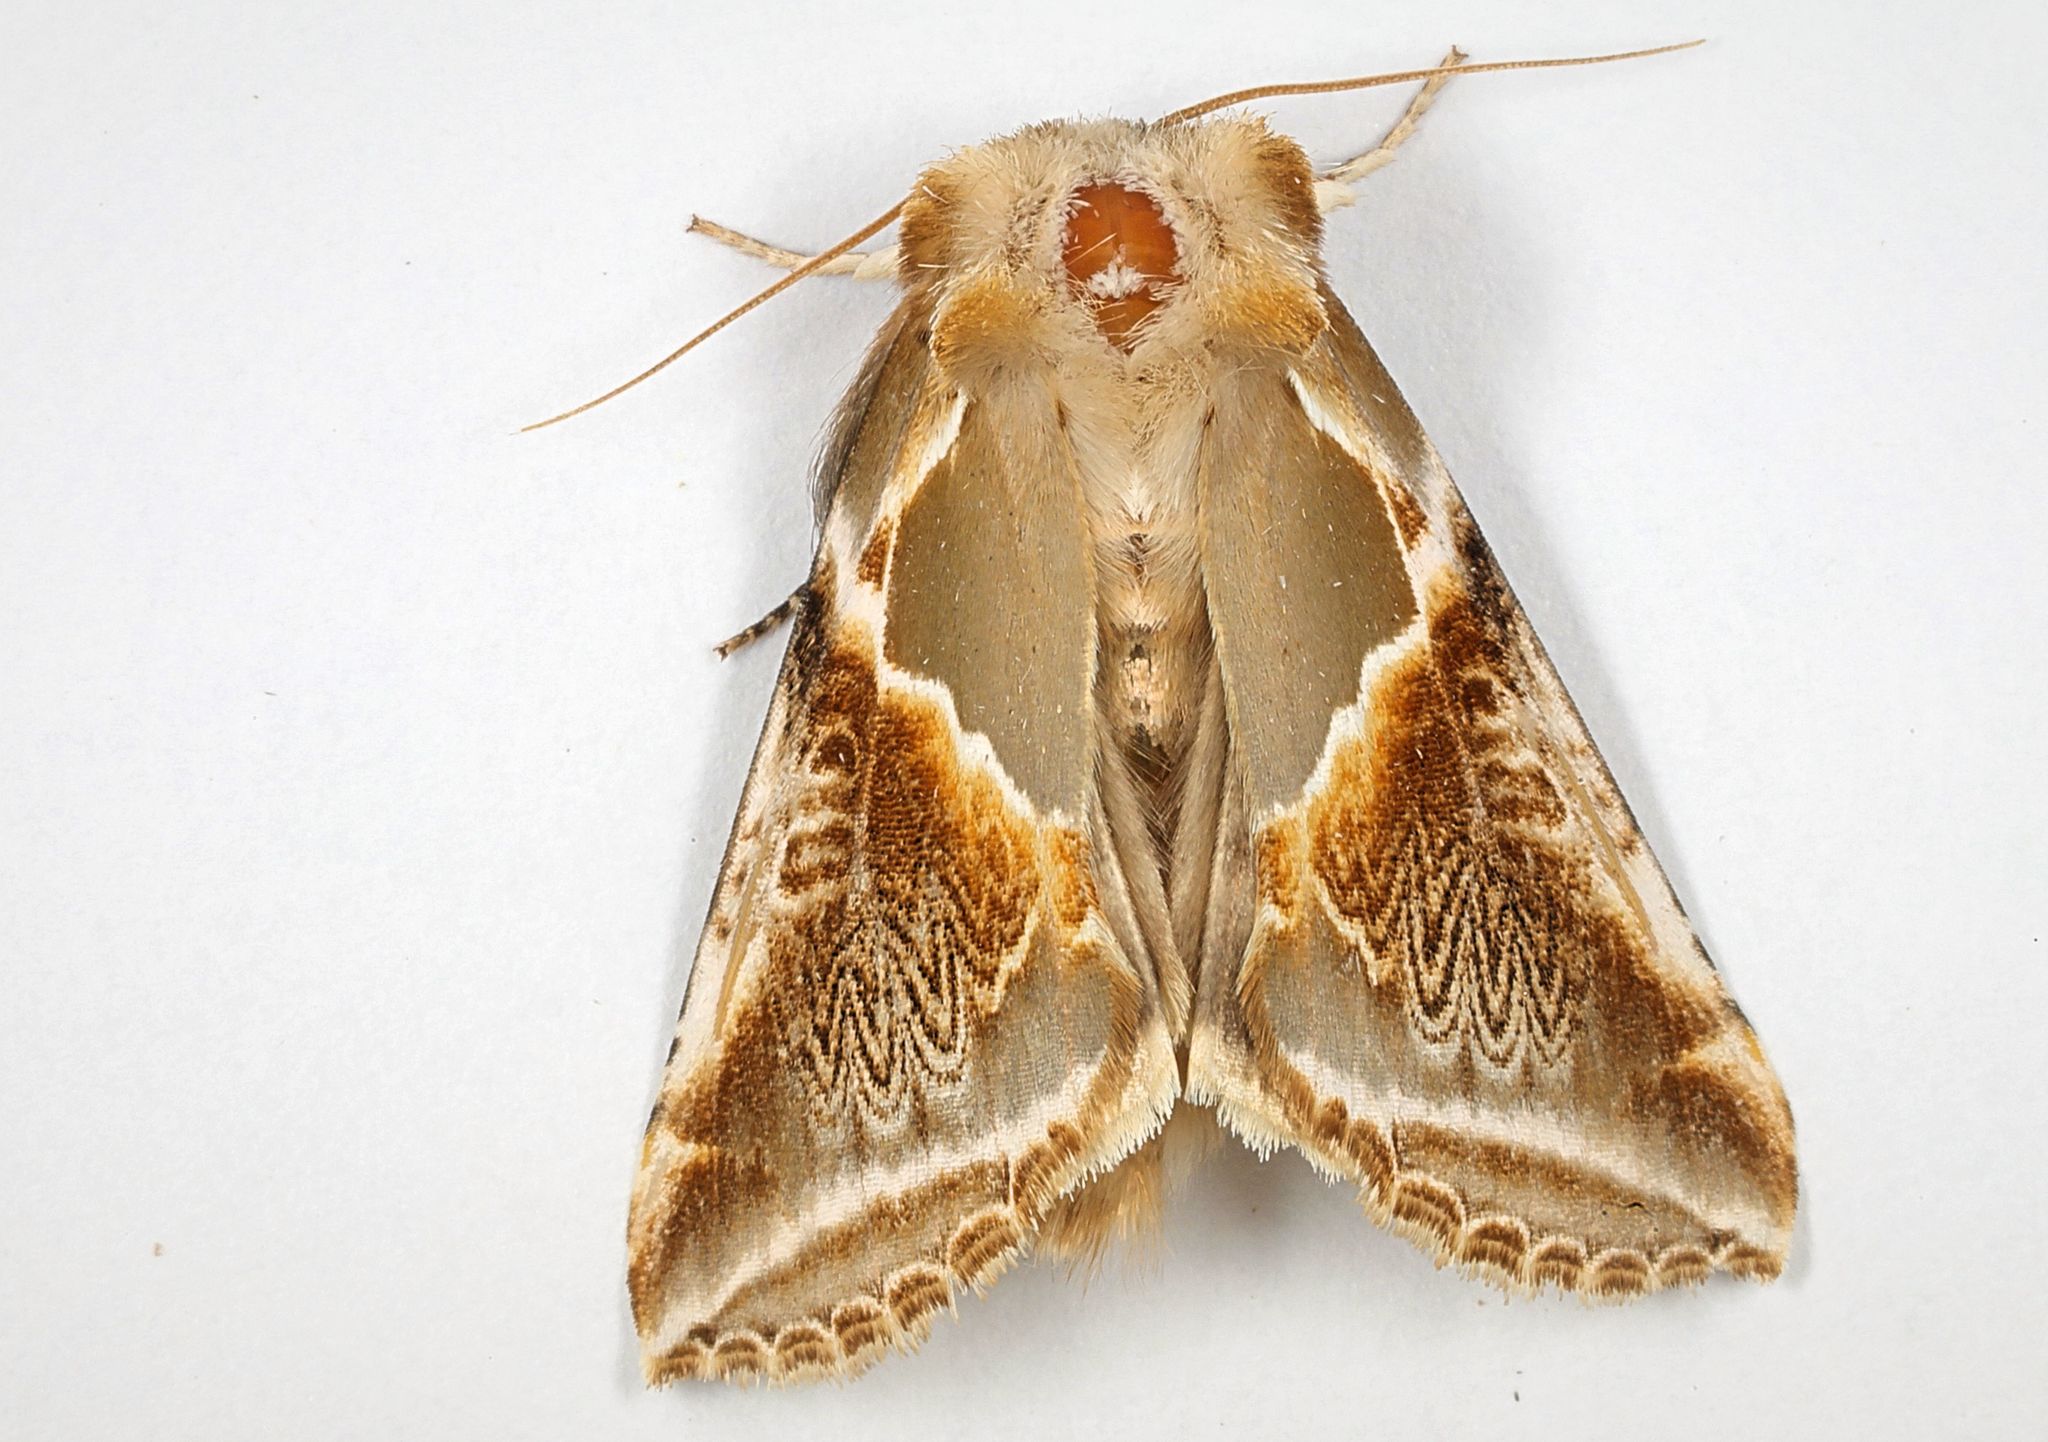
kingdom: Animalia
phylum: Arthropoda
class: Insecta
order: Lepidoptera
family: Drepanidae
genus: Habrosyne
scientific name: Habrosyne pyritoides
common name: Buff arches
